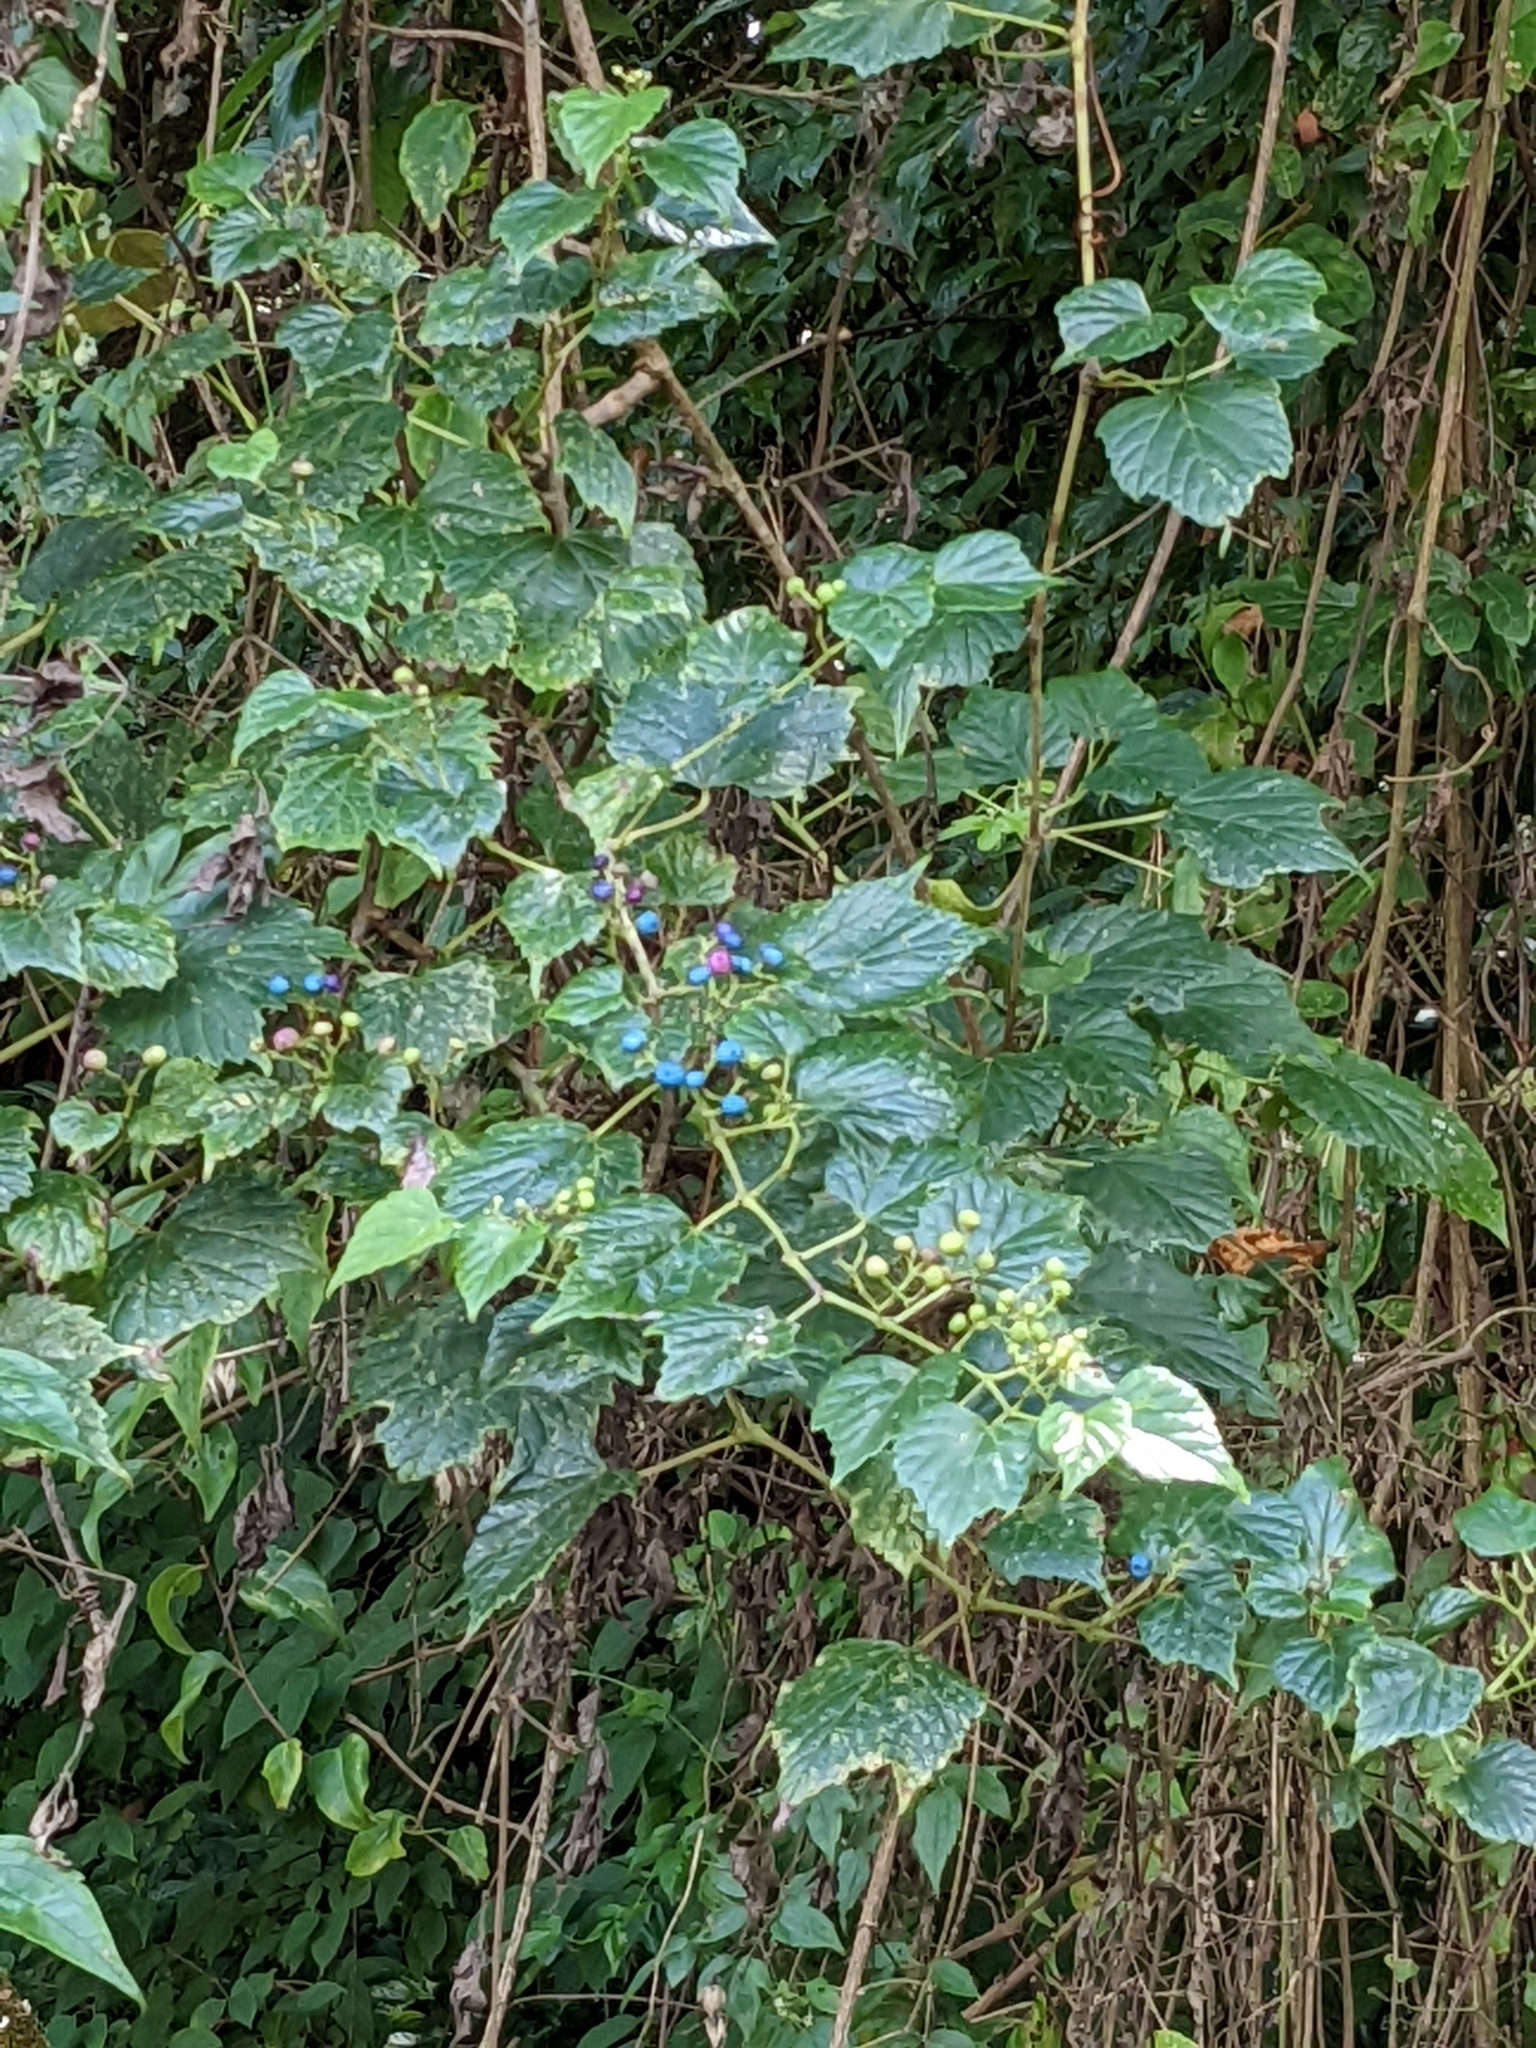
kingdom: Plantae
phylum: Tracheophyta
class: Magnoliopsida
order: Vitales
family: Vitaceae
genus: Ampelopsis
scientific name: Ampelopsis glandulosa
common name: Amur peppervine
